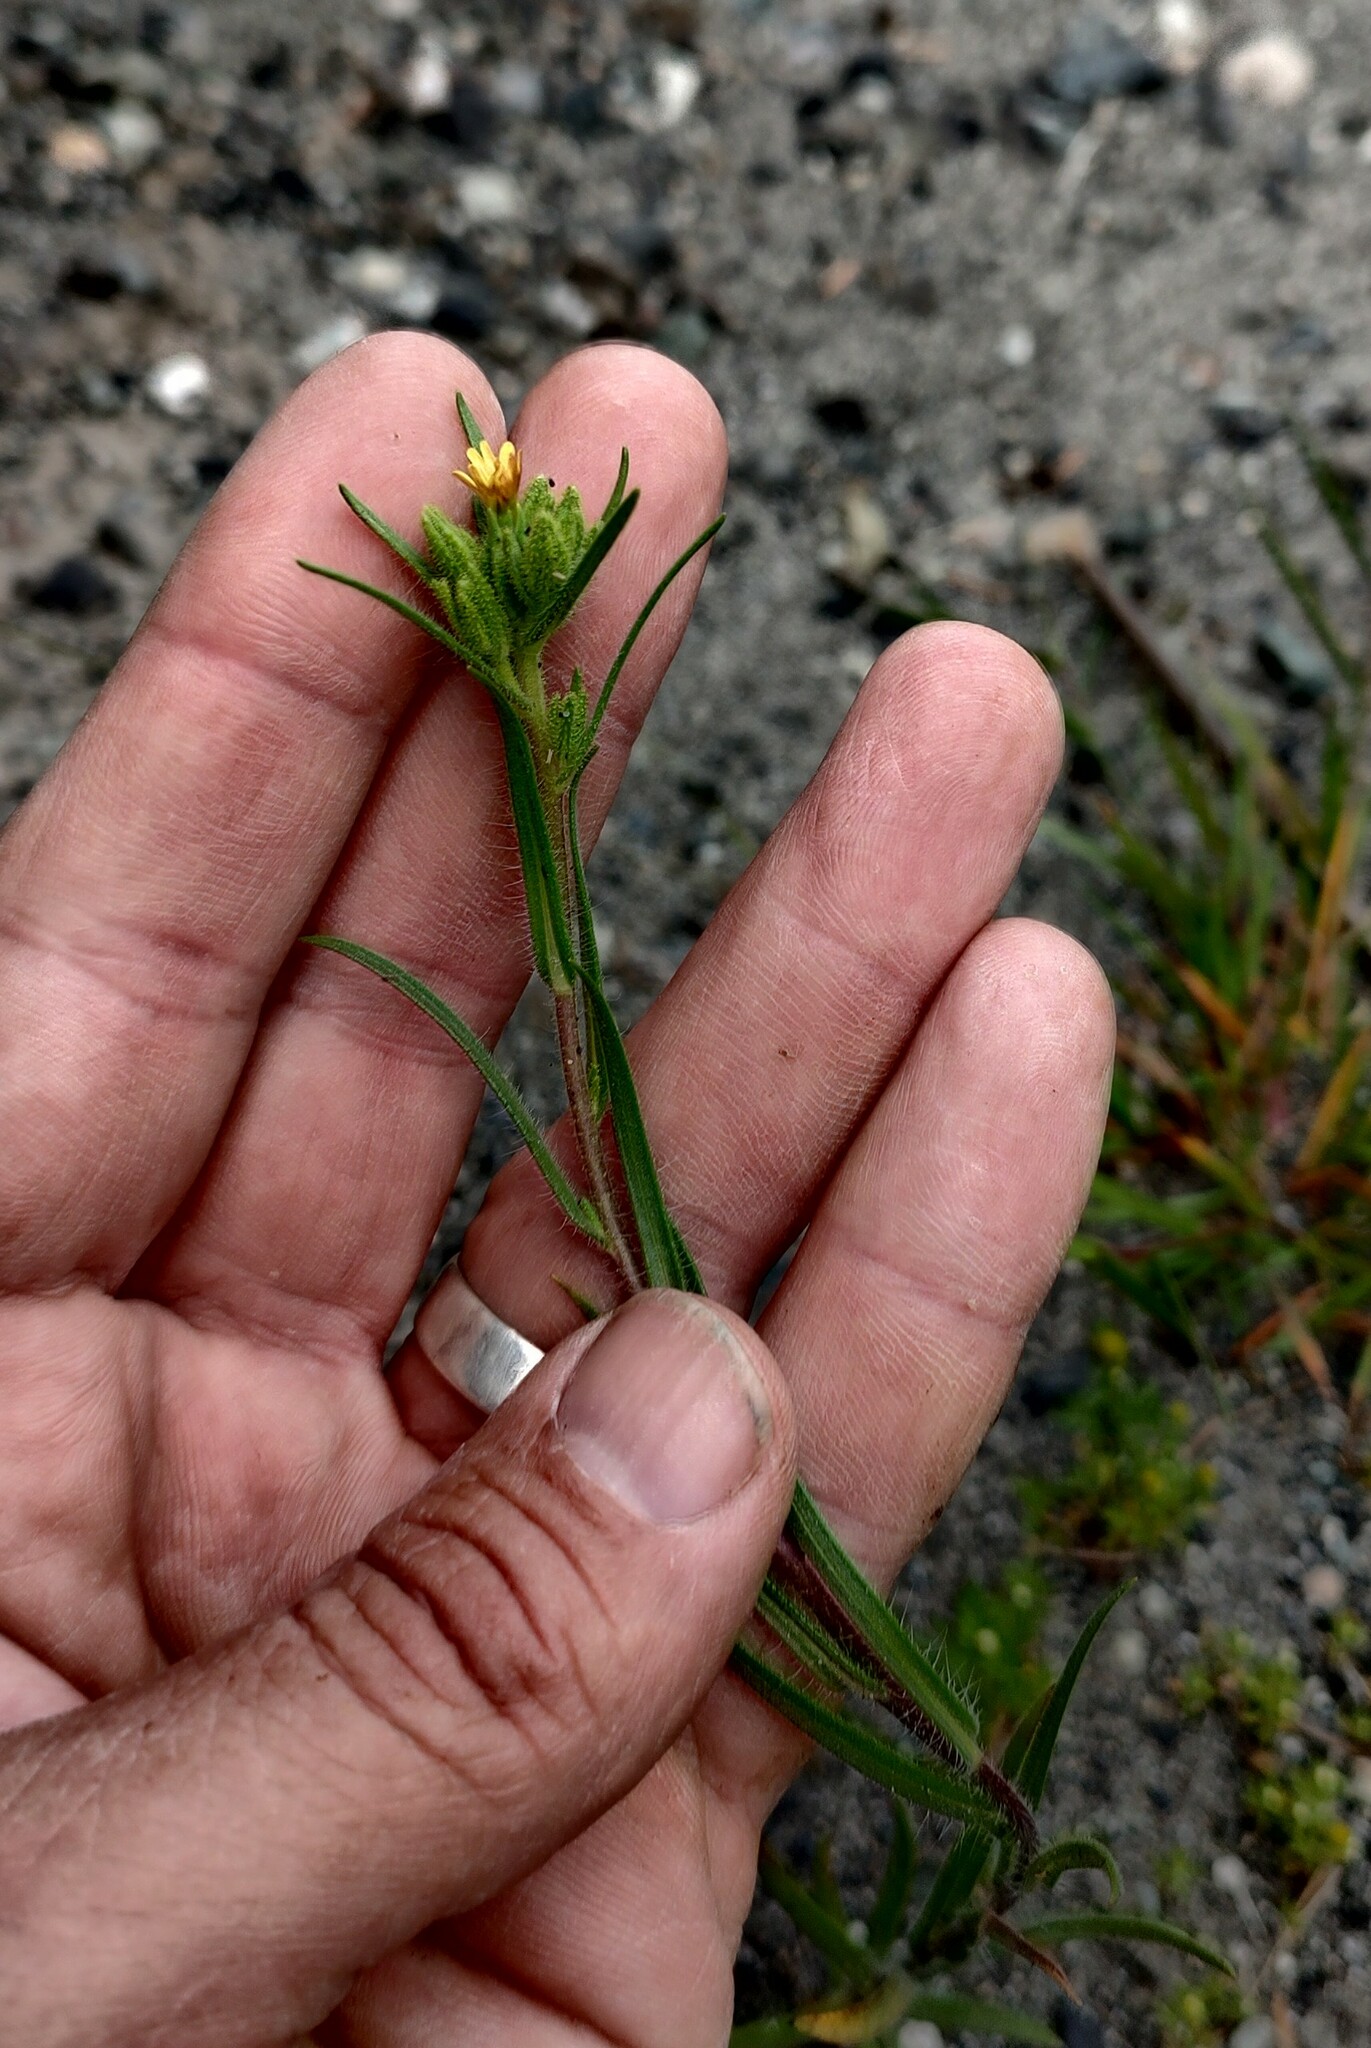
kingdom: Plantae
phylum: Tracheophyta
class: Magnoliopsida
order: Asterales
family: Asteraceae
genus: Madia
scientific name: Madia glomerata
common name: Mountain tarweed
